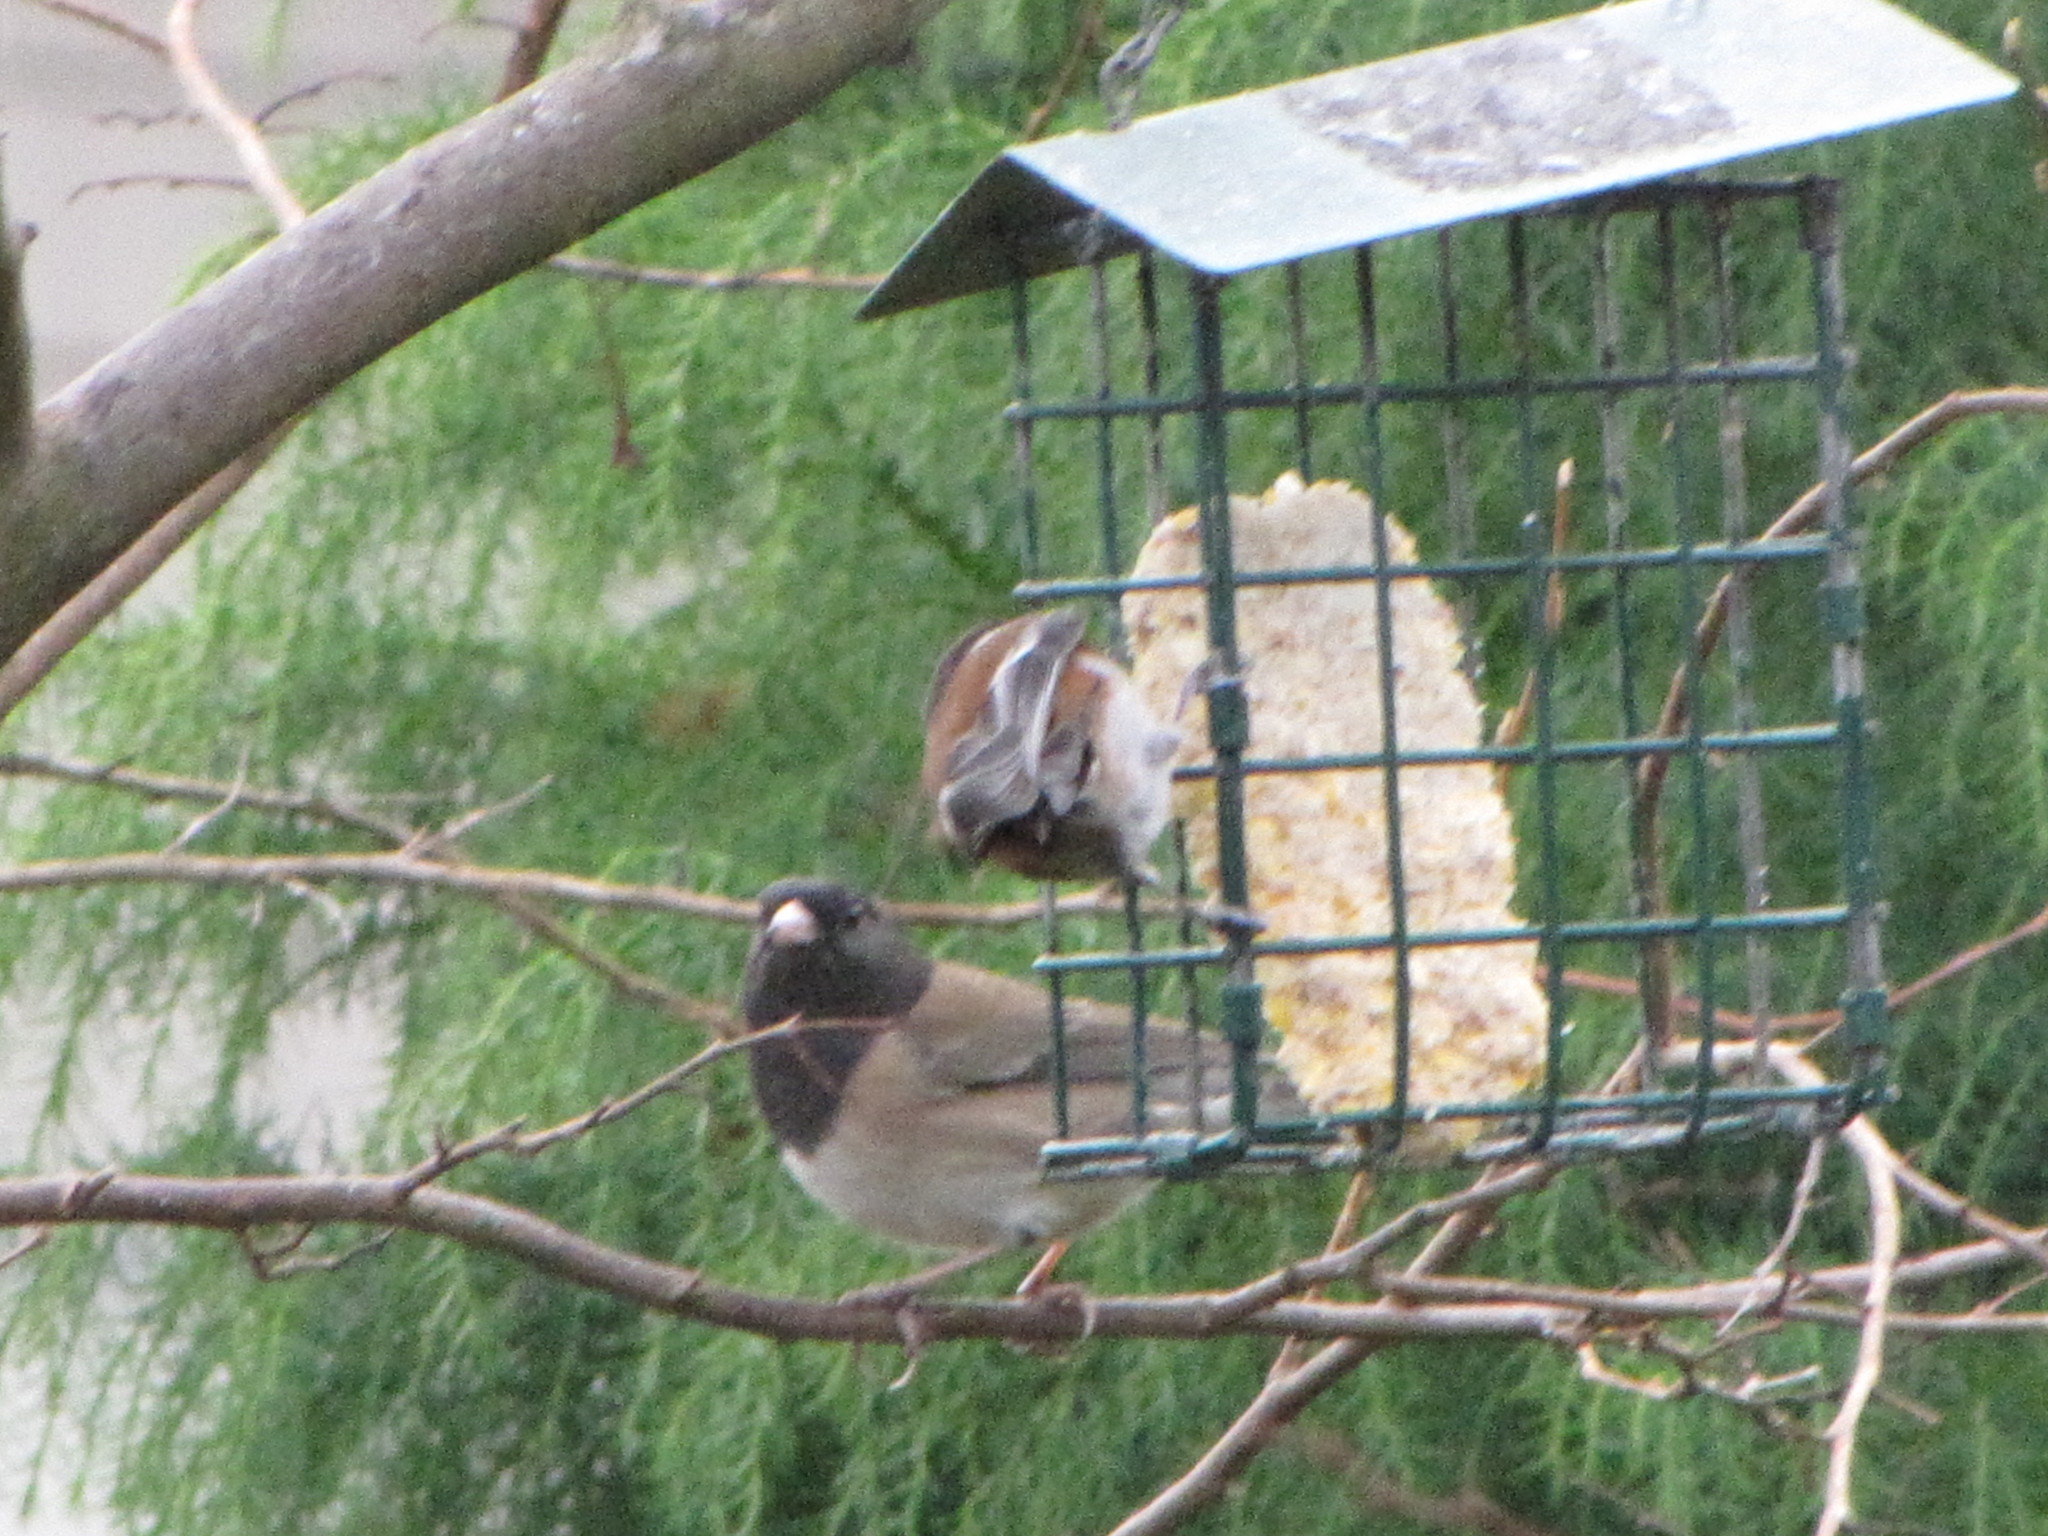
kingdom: Animalia
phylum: Chordata
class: Aves
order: Passeriformes
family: Passerellidae
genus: Junco
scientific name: Junco hyemalis
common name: Dark-eyed junco
